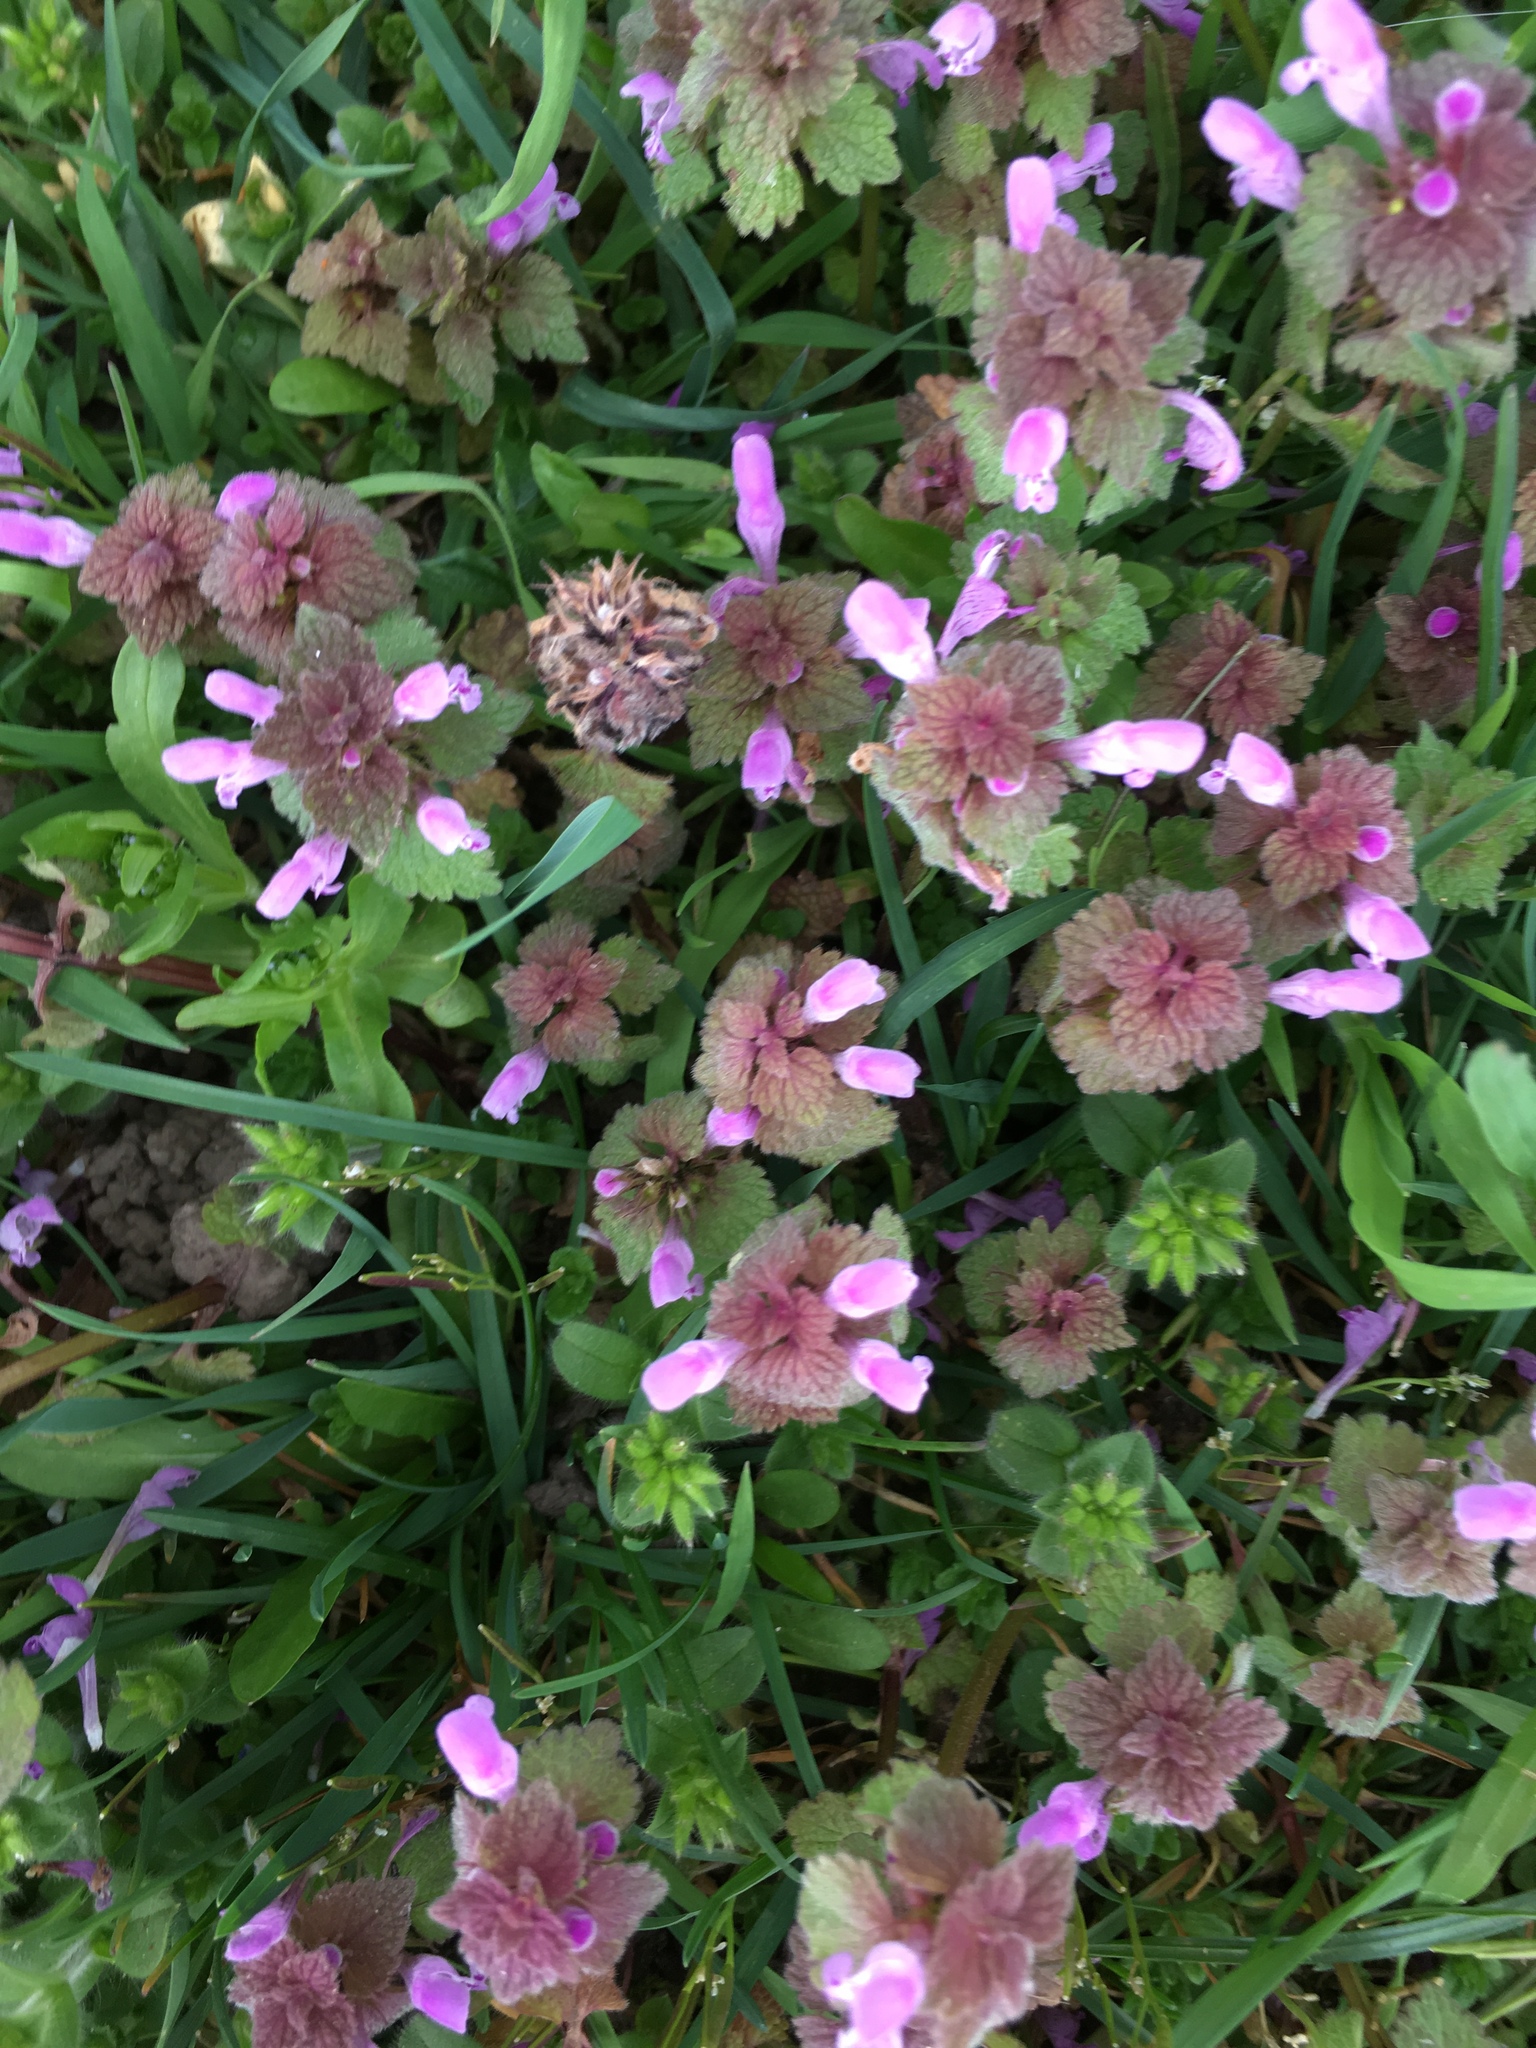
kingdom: Plantae
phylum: Tracheophyta
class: Magnoliopsida
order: Lamiales
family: Lamiaceae
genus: Lamium
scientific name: Lamium purpureum
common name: Red dead-nettle
